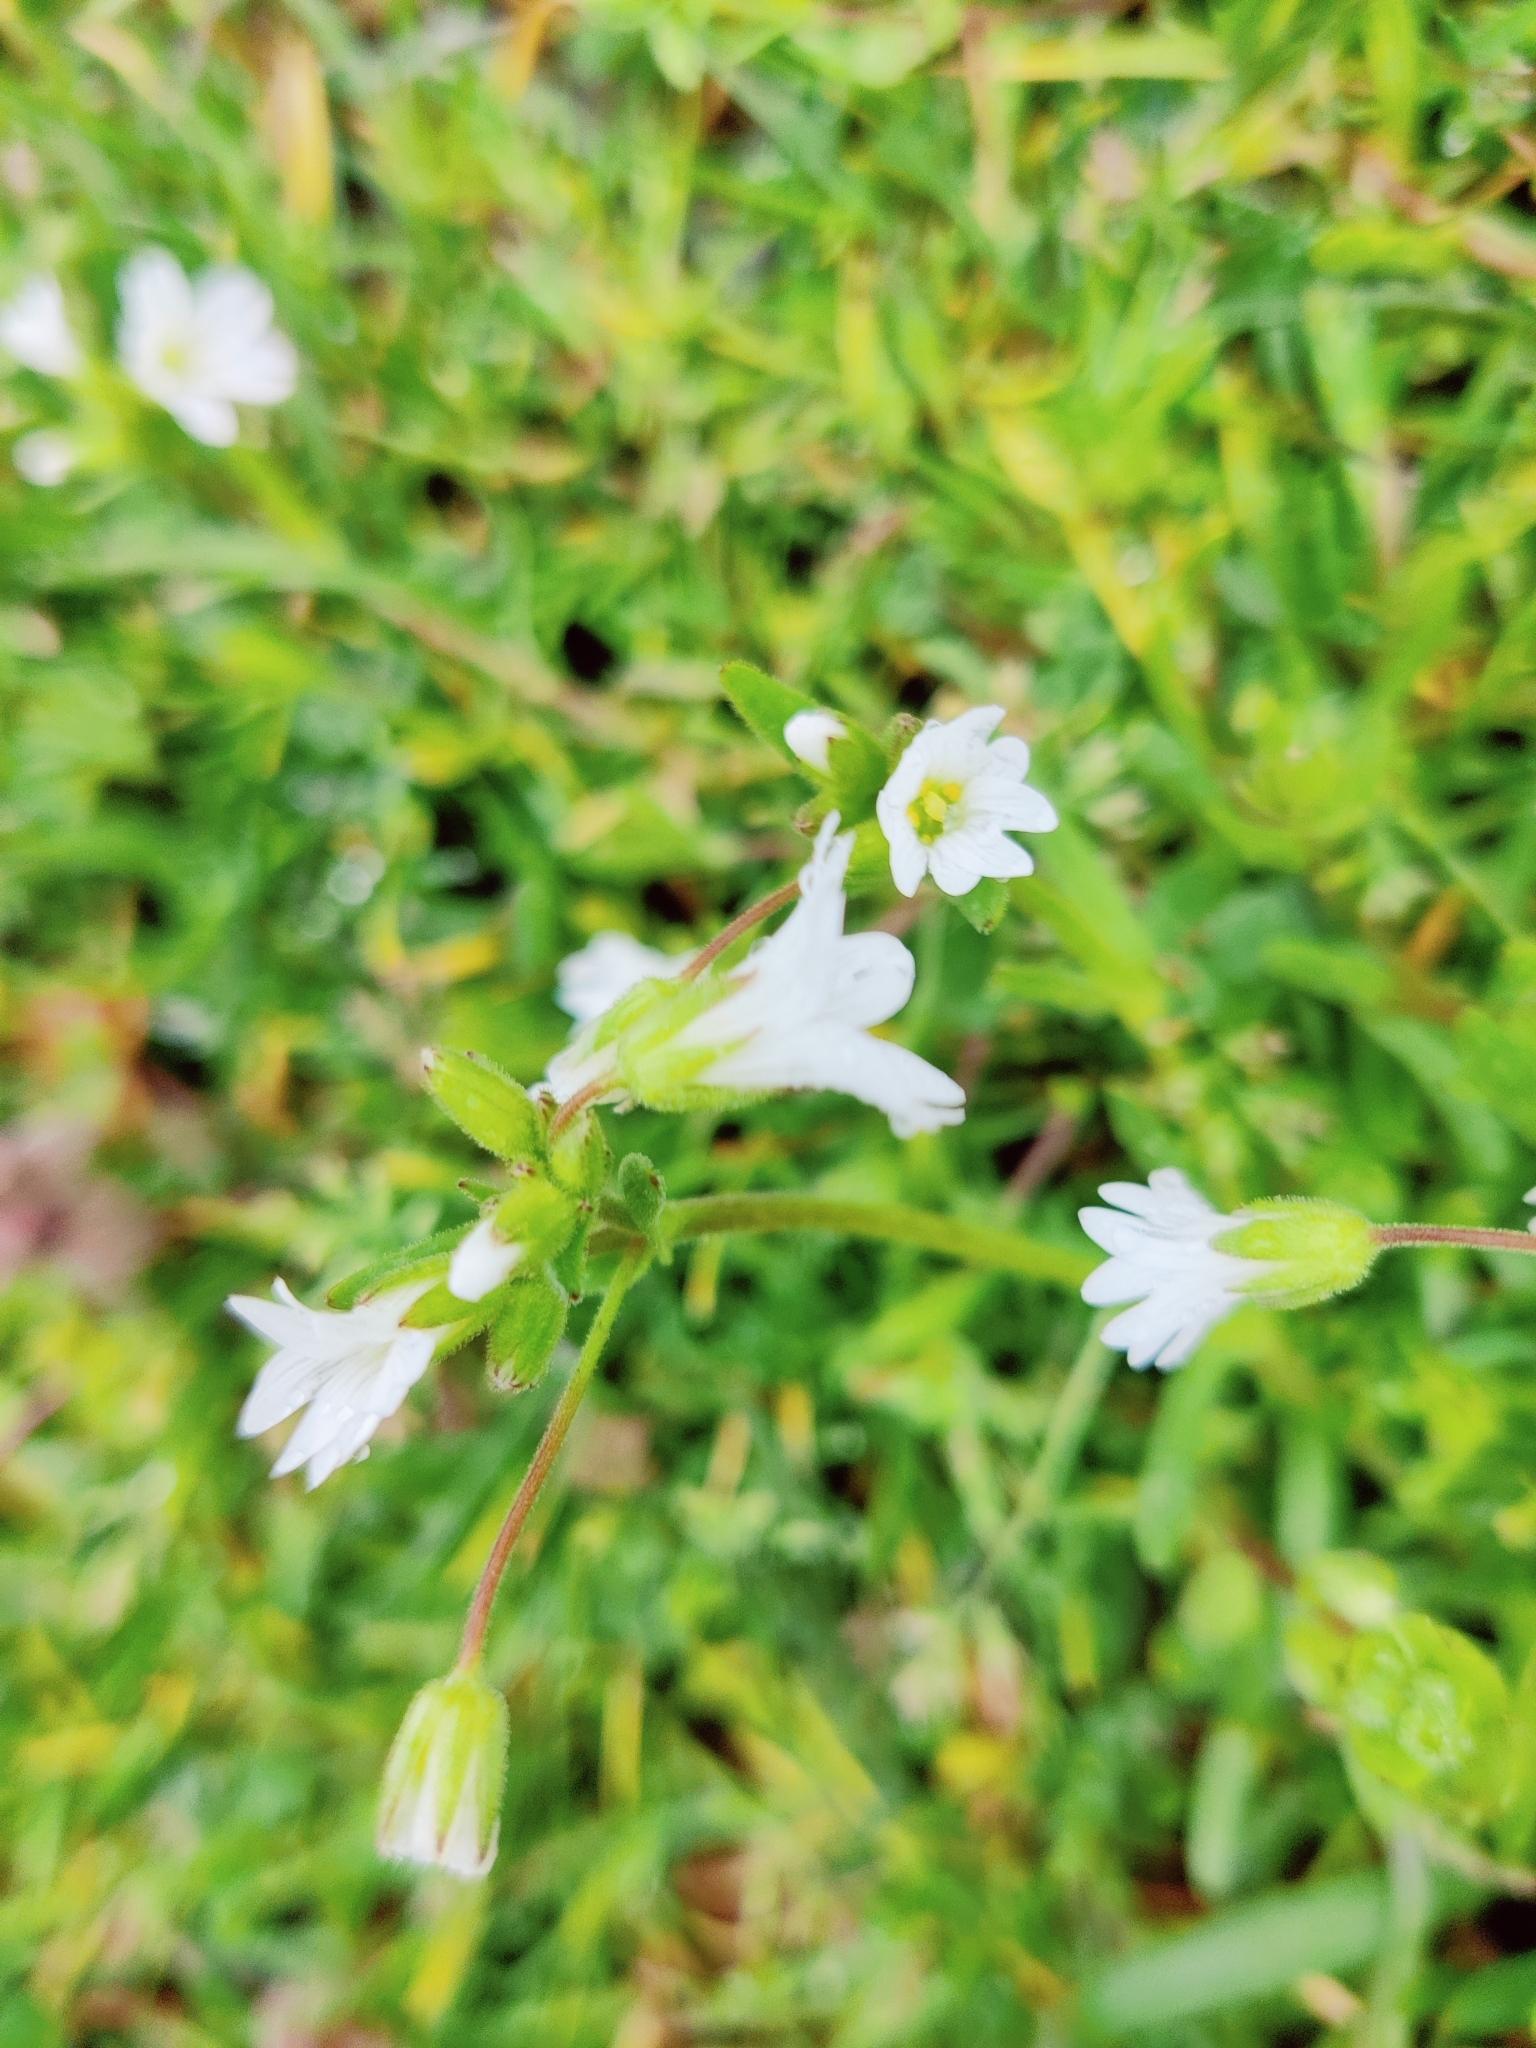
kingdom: Plantae
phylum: Tracheophyta
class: Magnoliopsida
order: Caryophyllales
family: Caryophyllaceae
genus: Dichodon
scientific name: Dichodon viscidum
